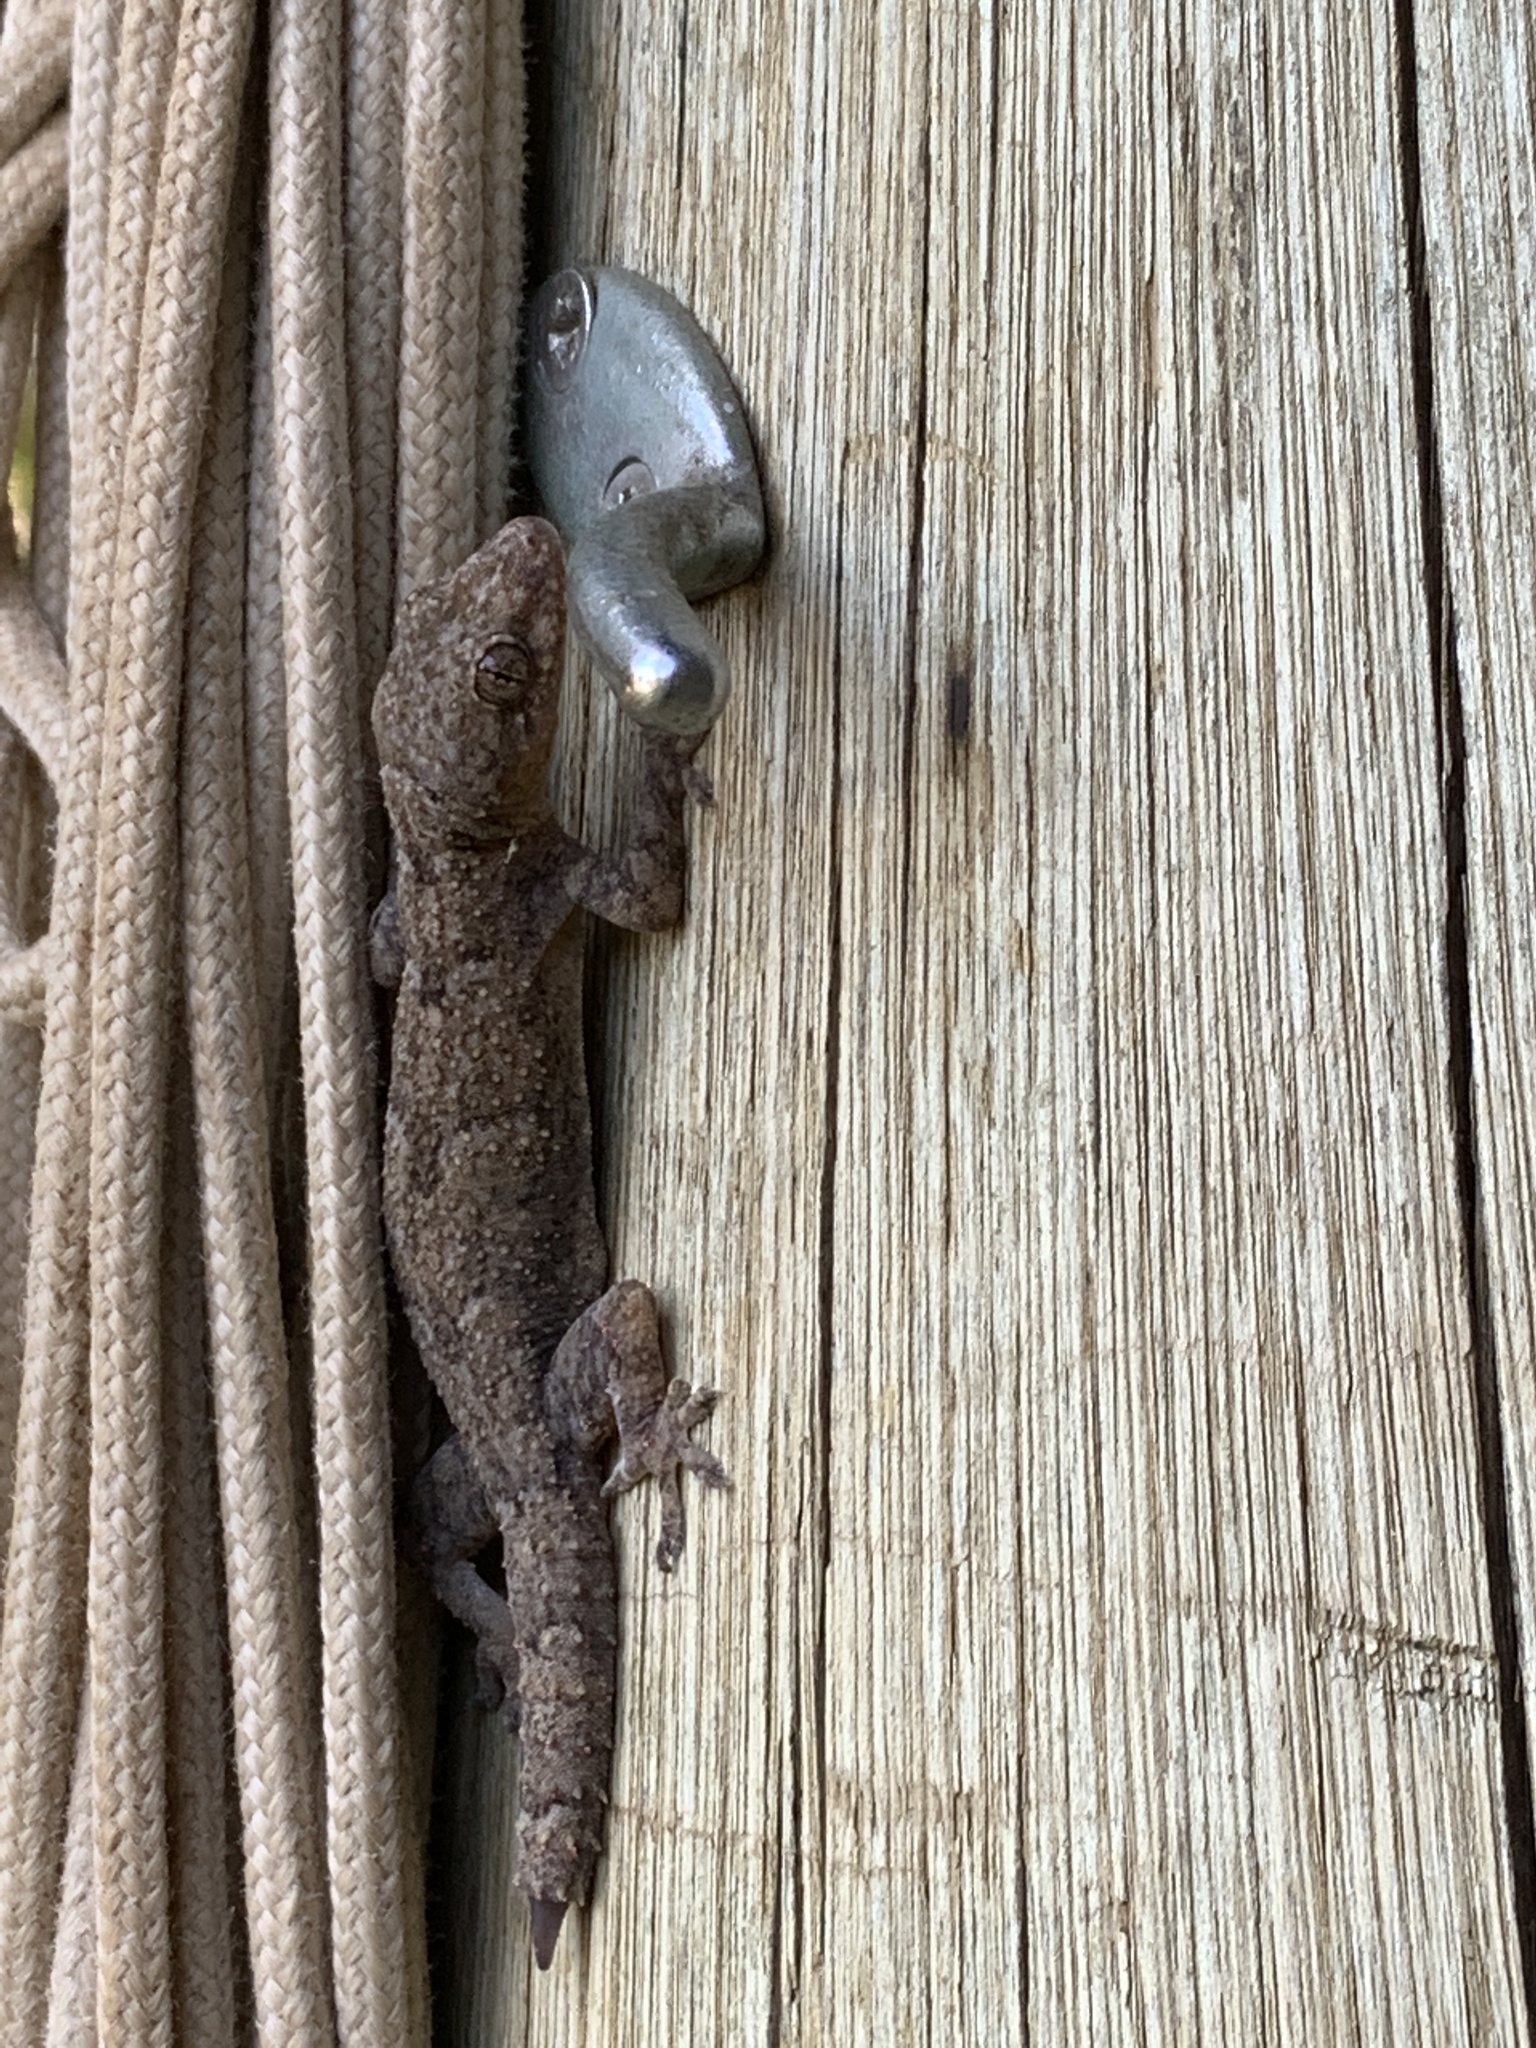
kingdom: Animalia
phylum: Chordata
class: Squamata
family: Gekkonidae
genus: Hemidactylus
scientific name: Hemidactylus mabouia
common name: House gecko
